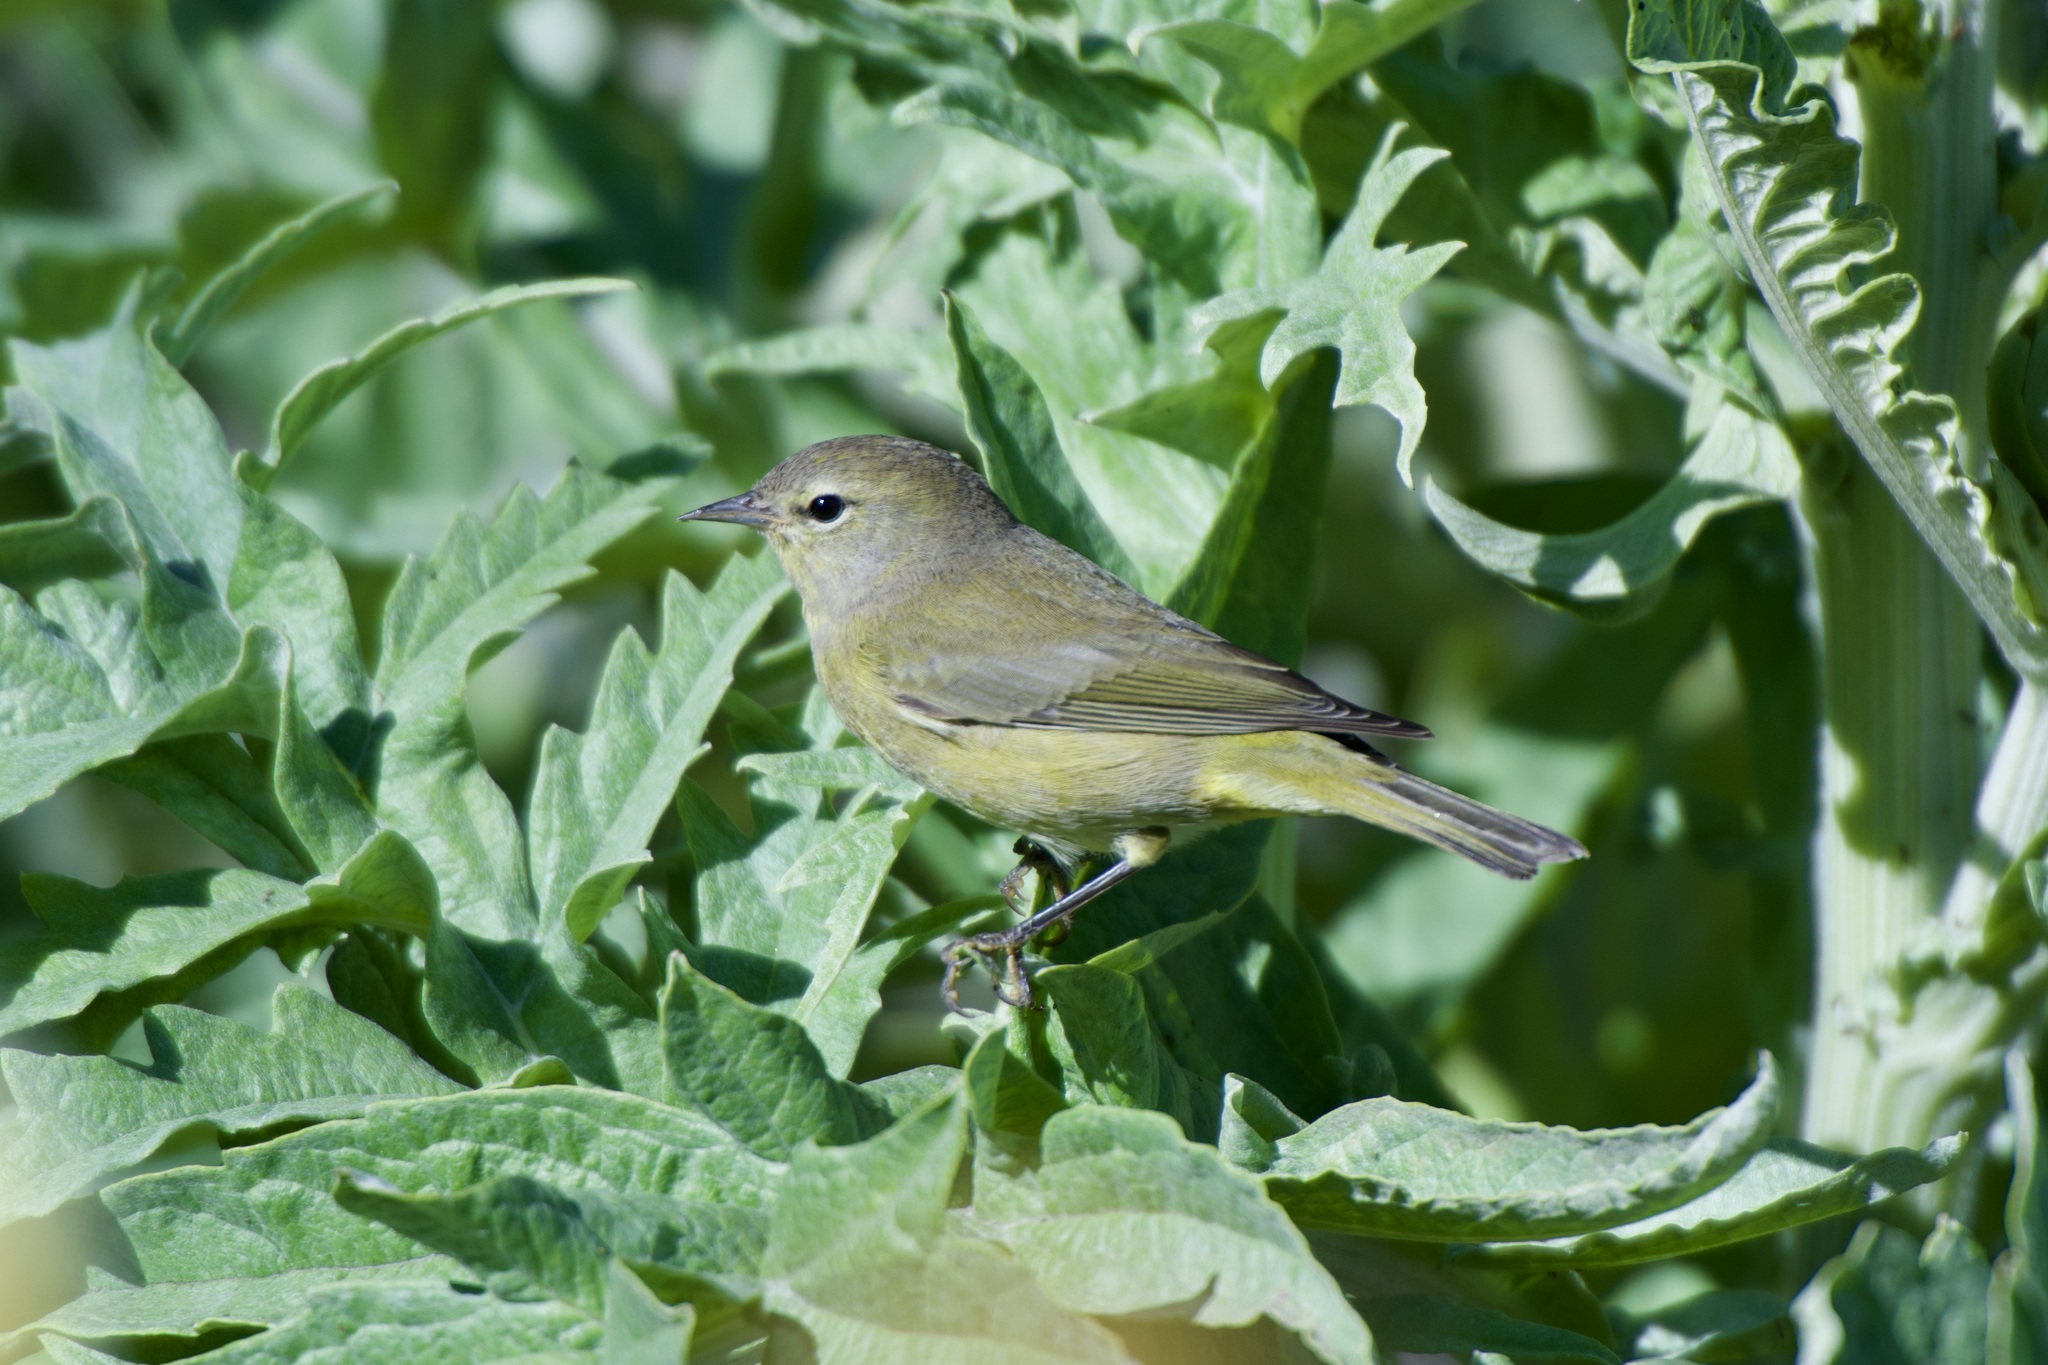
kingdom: Animalia
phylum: Chordata
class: Aves
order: Passeriformes
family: Parulidae
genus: Leiothlypis
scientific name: Leiothlypis celata
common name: Orange-crowned warbler
